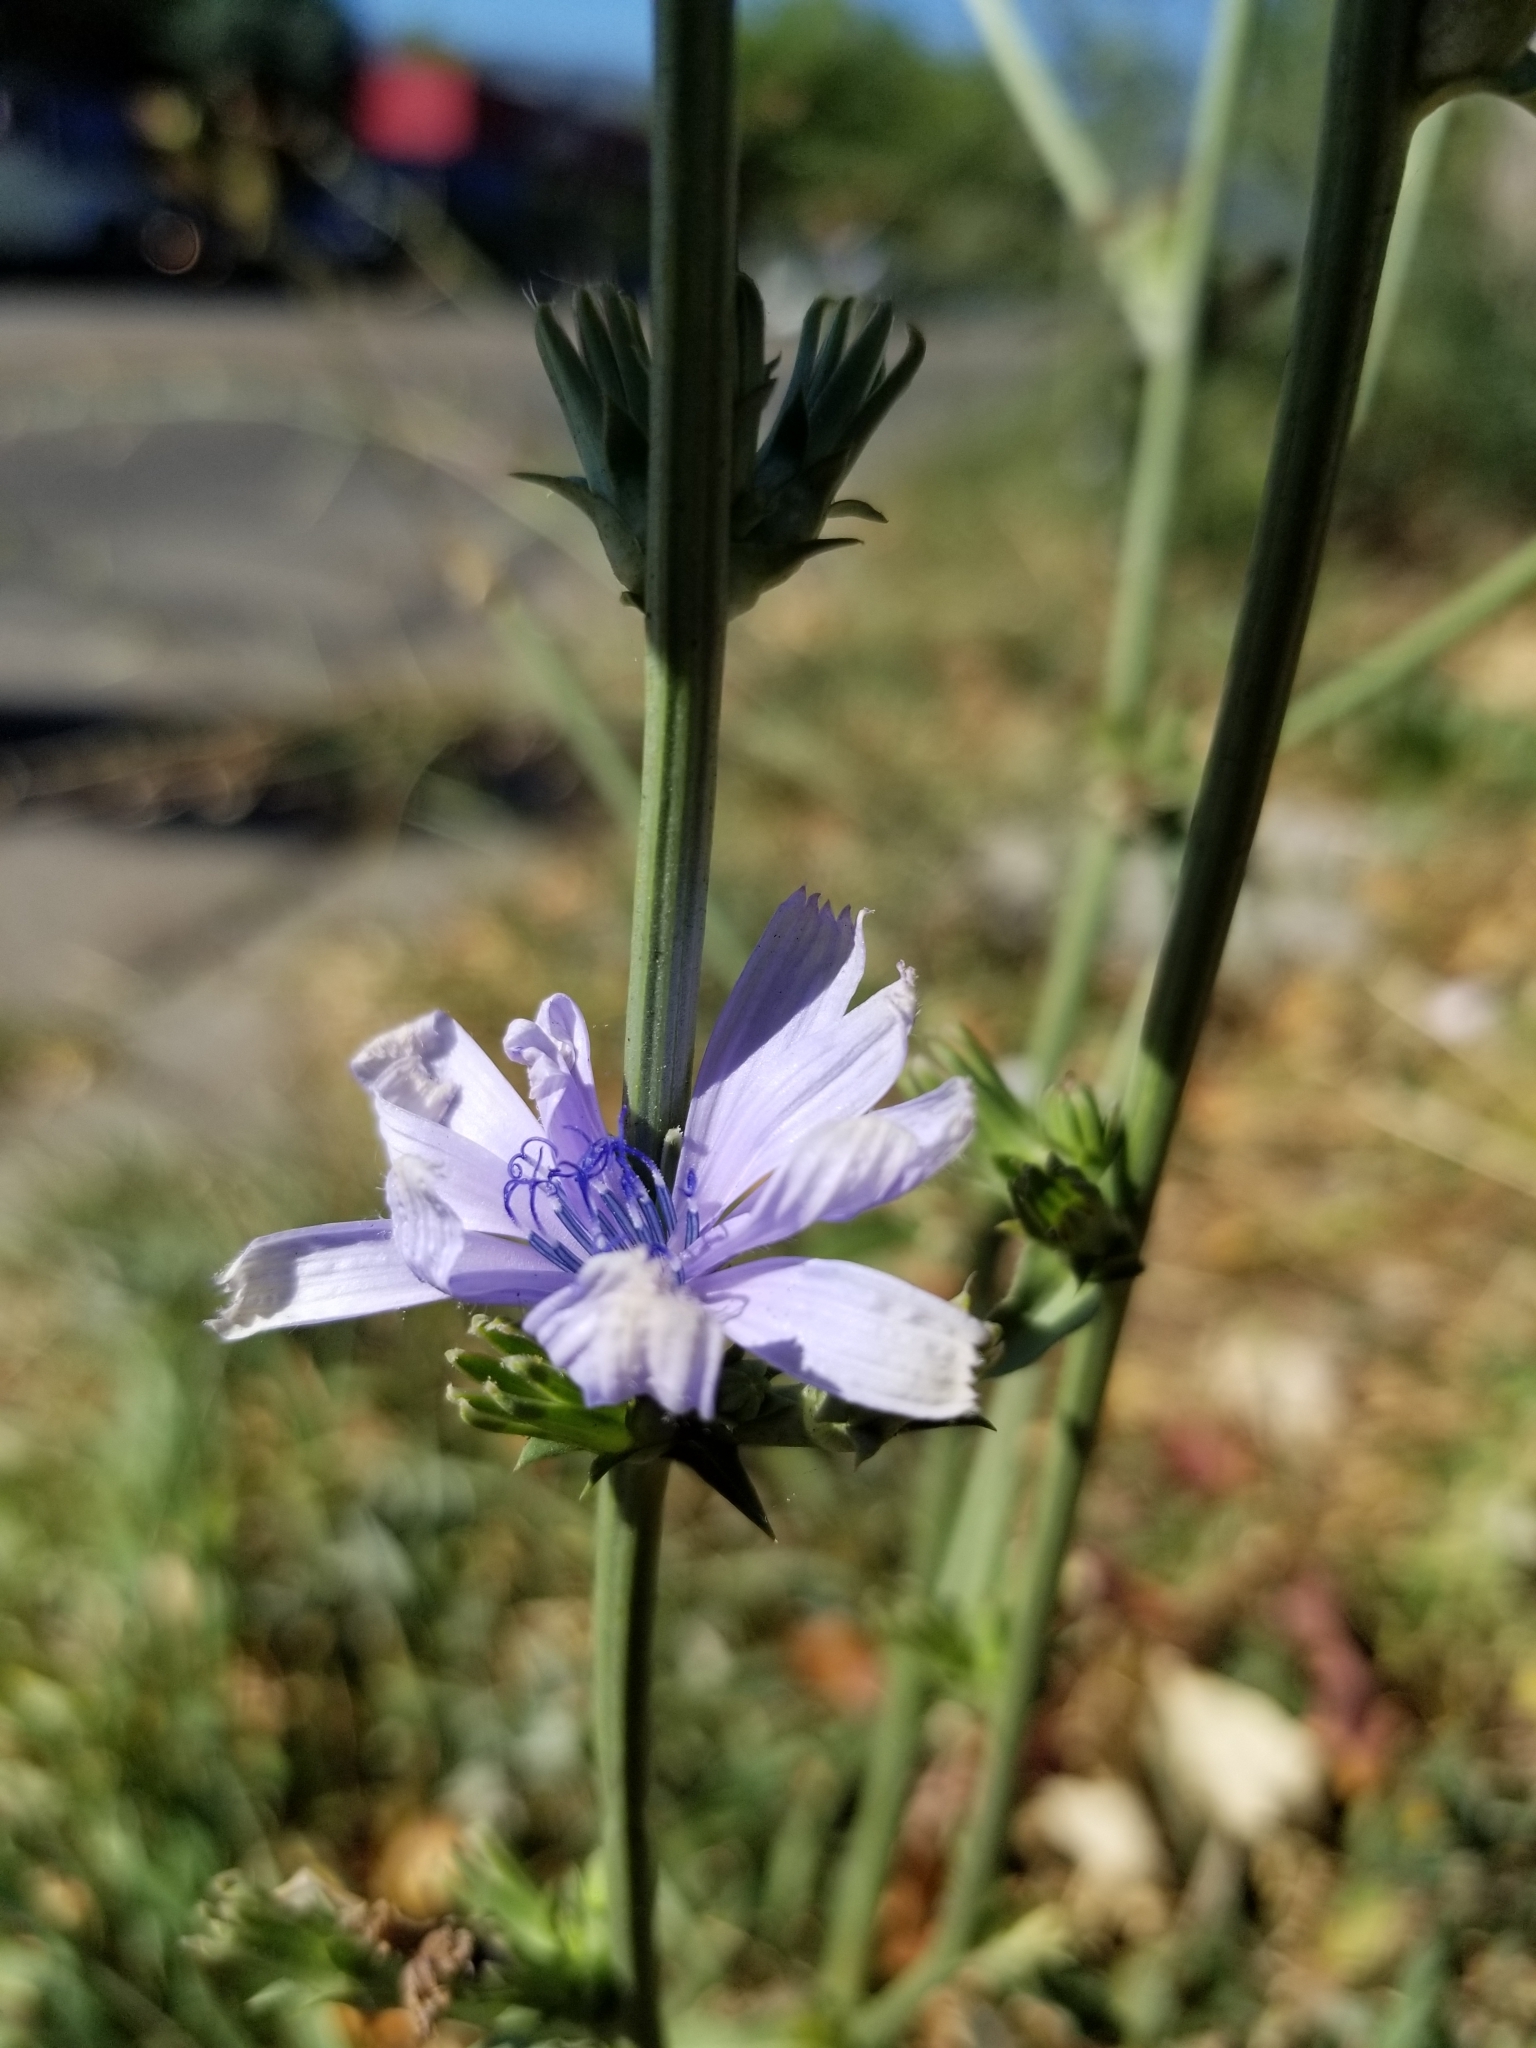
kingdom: Plantae
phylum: Tracheophyta
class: Magnoliopsida
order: Asterales
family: Asteraceae
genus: Cichorium
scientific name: Cichorium intybus
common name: Chicory
